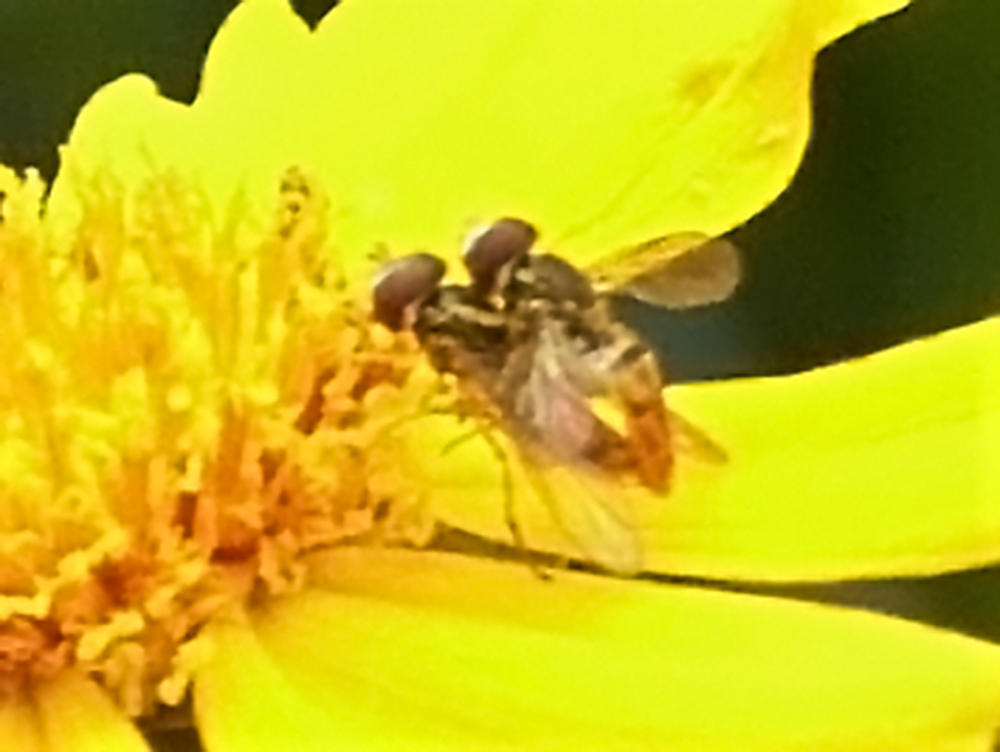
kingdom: Animalia
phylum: Arthropoda
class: Insecta
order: Diptera
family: Syrphidae
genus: Toxomerus
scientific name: Toxomerus marginatus
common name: Syrphid fly
